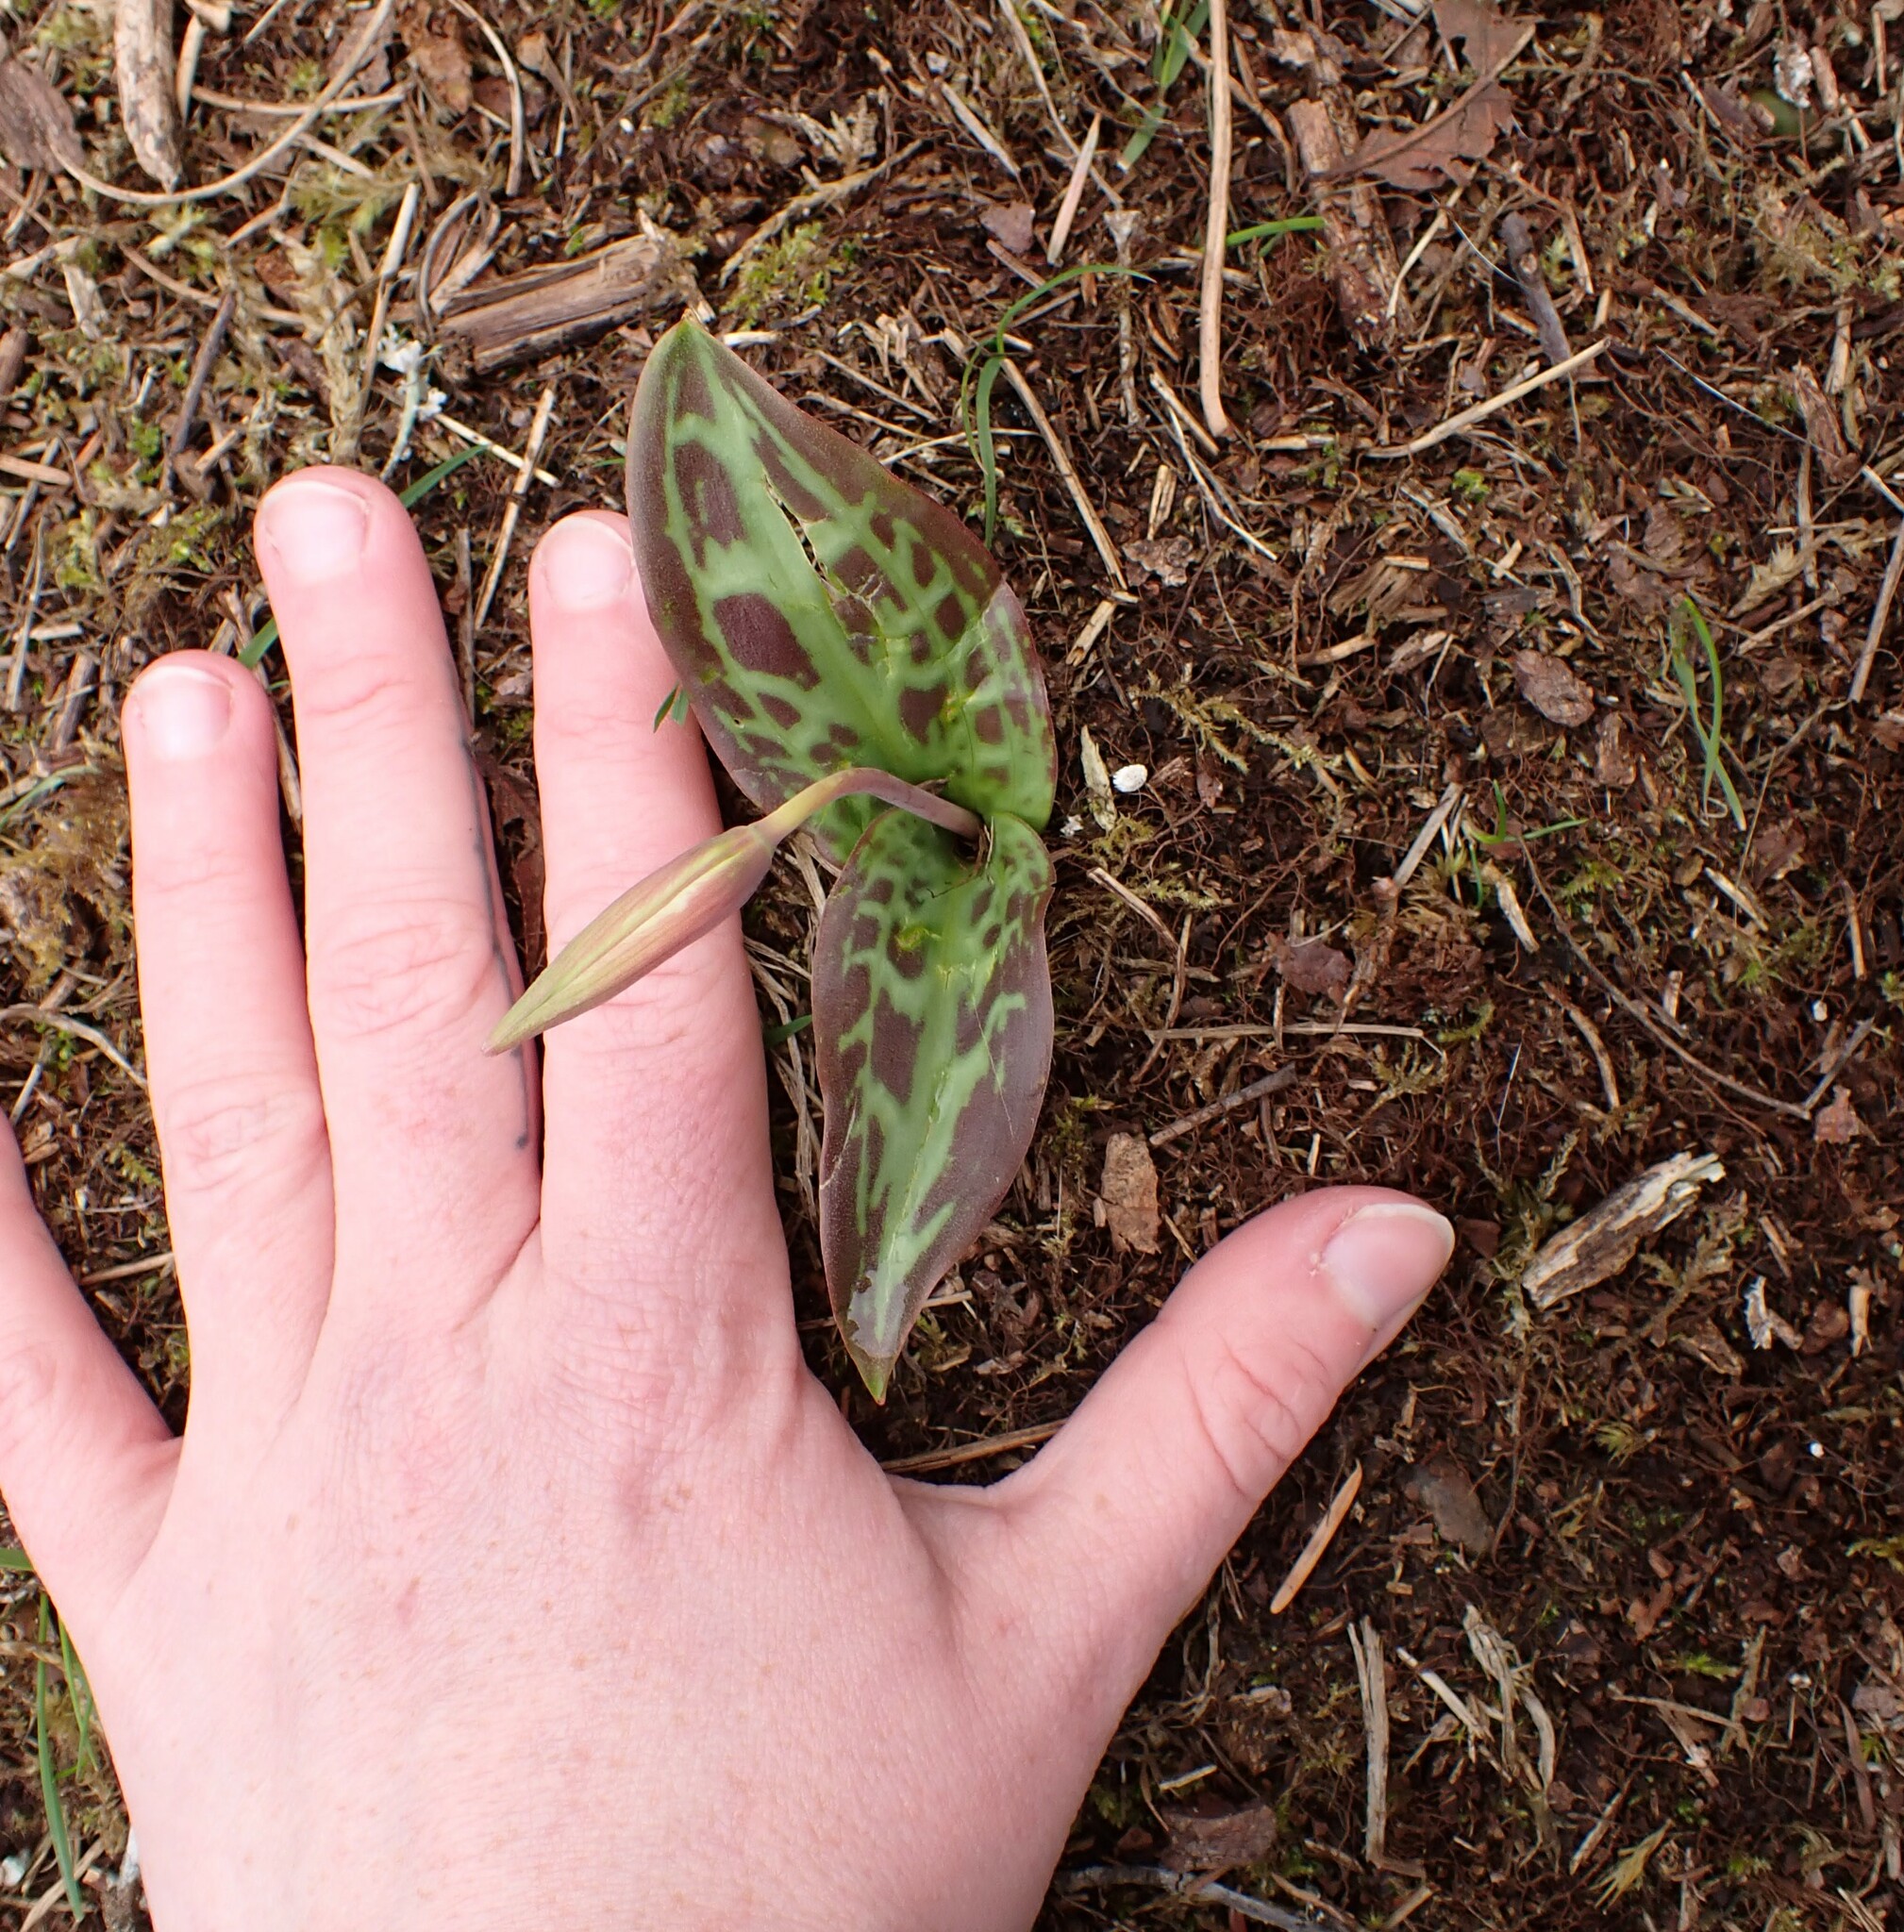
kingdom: Plantae
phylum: Tracheophyta
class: Liliopsida
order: Liliales
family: Liliaceae
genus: Erythronium
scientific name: Erythronium oregonum
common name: Giant adder's-tongue
